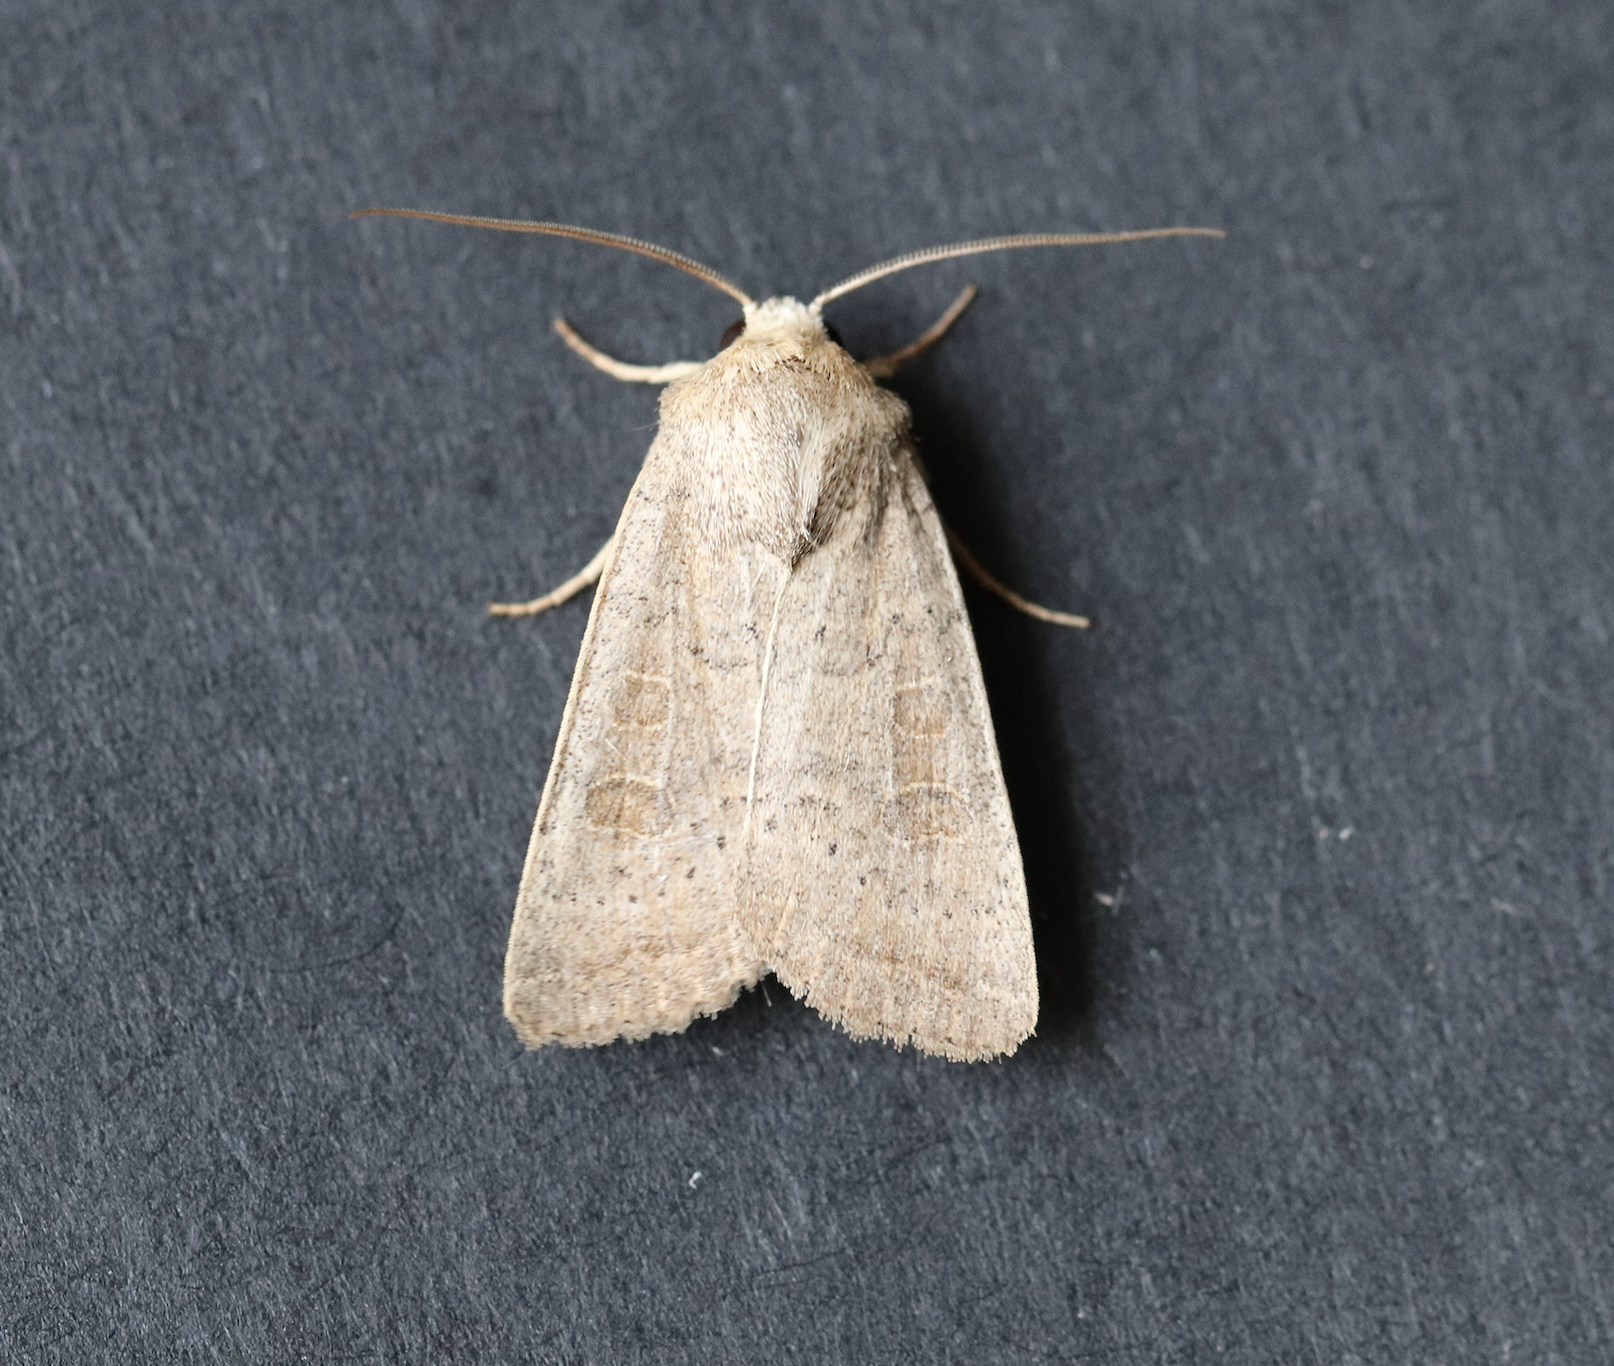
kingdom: Animalia
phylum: Arthropoda
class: Insecta
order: Lepidoptera
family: Noctuidae
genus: Hoplodrina
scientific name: Hoplodrina ambigua
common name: Vine's rustic
